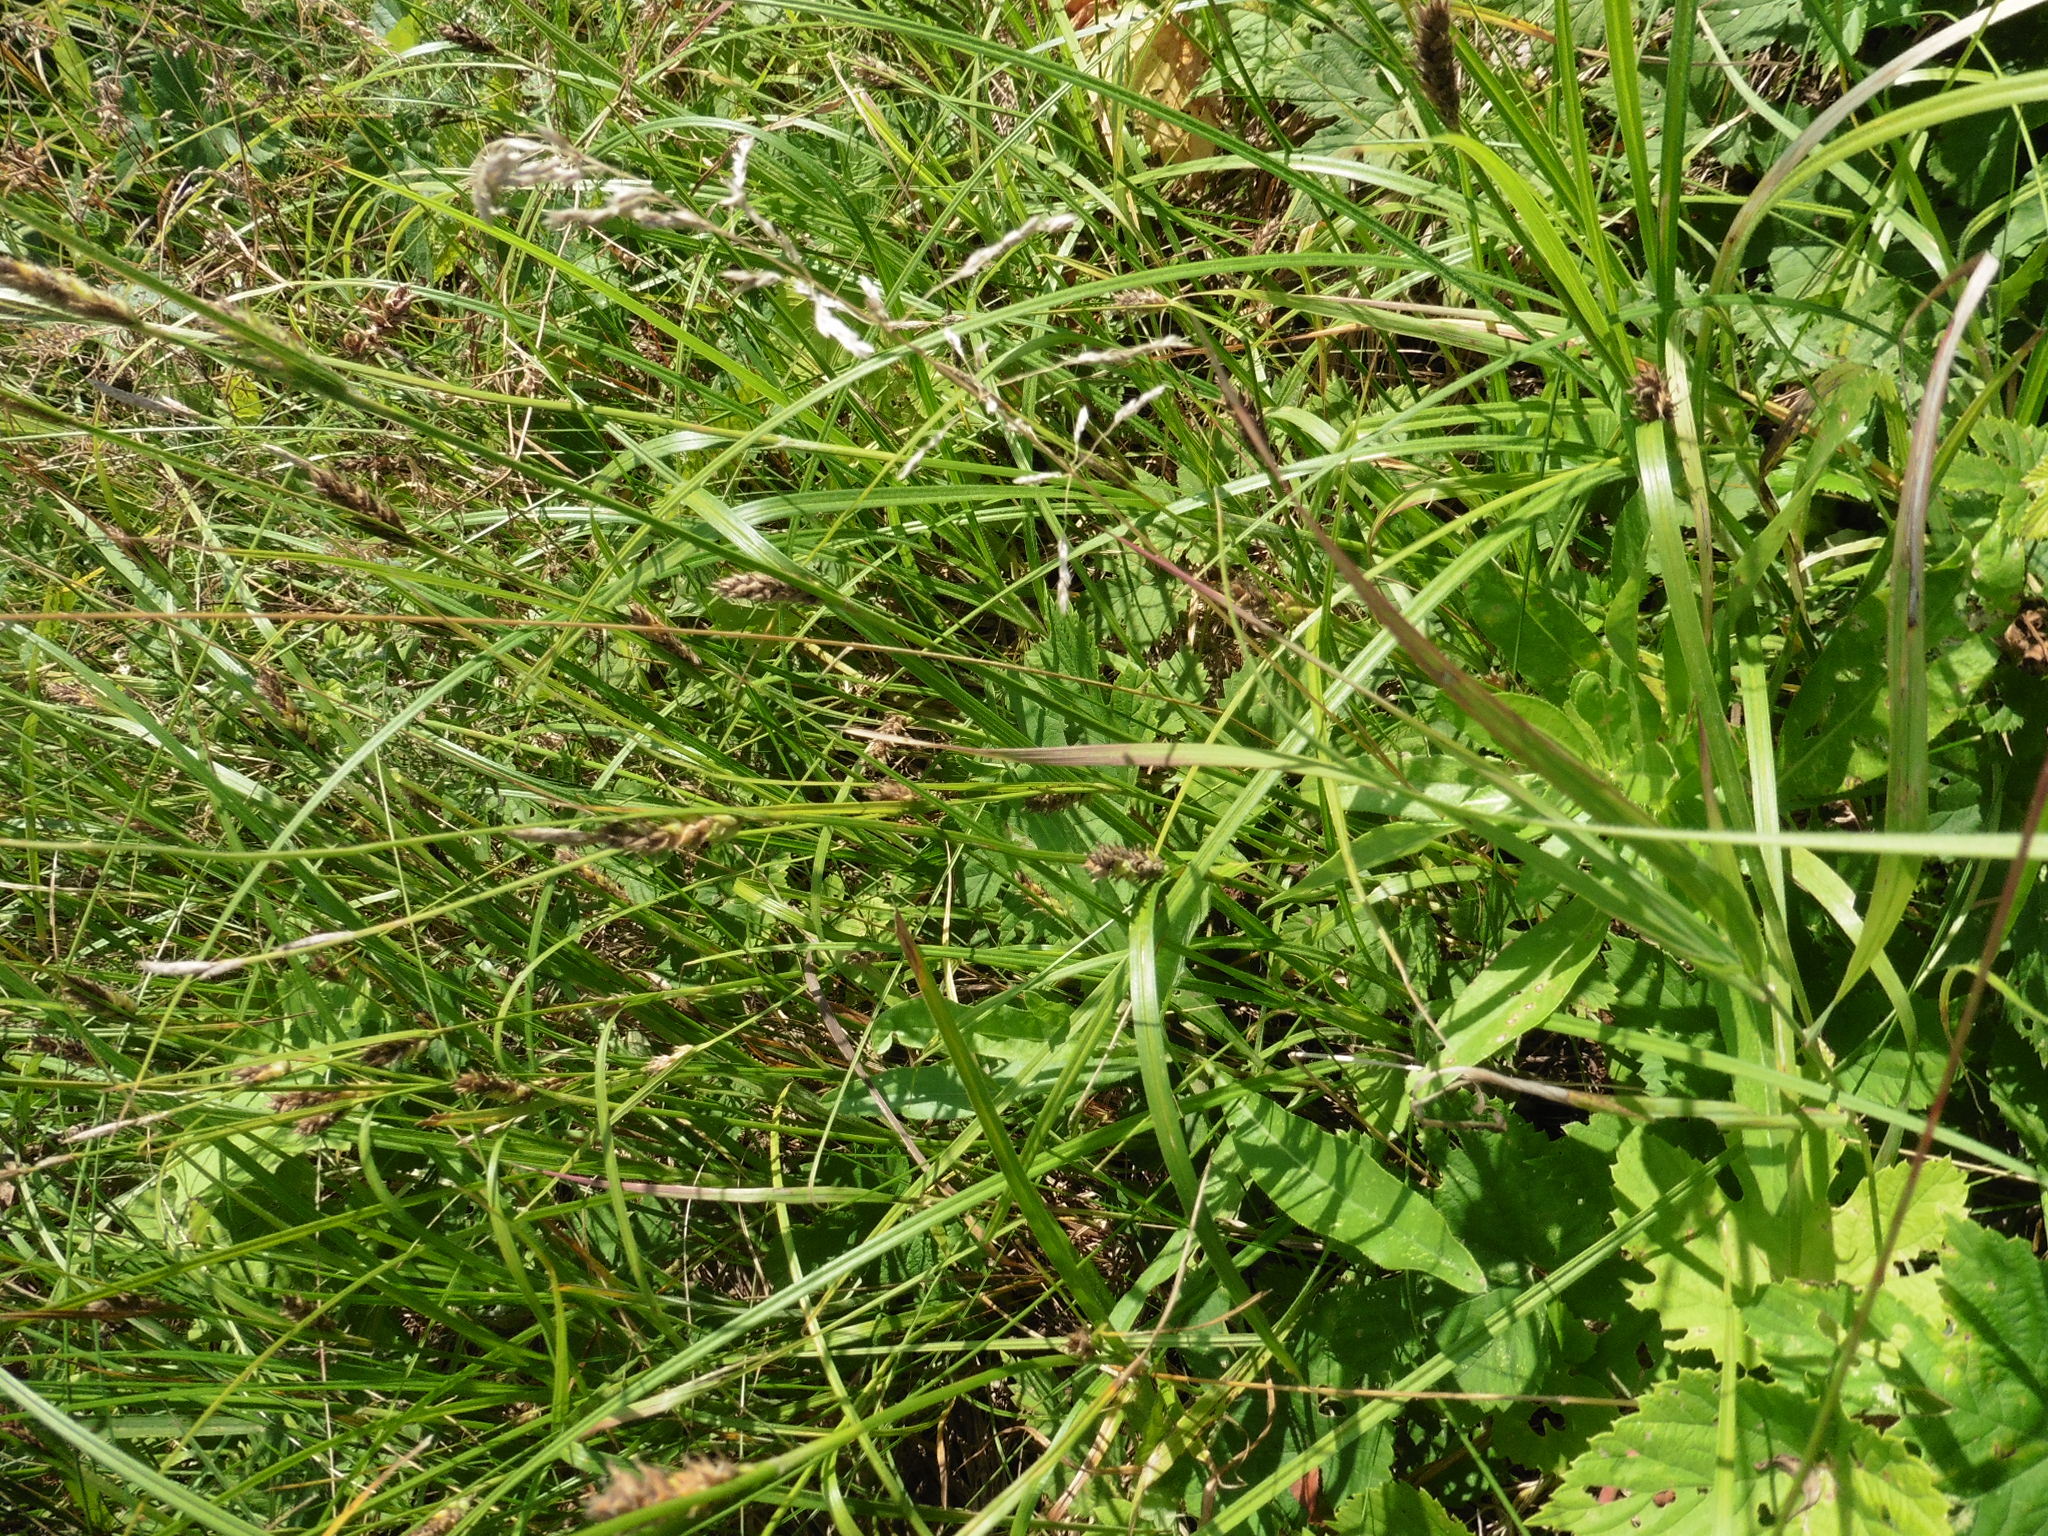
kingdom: Plantae
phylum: Tracheophyta
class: Liliopsida
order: Poales
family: Cyperaceae
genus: Carex
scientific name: Carex hirta
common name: Hairy sedge
